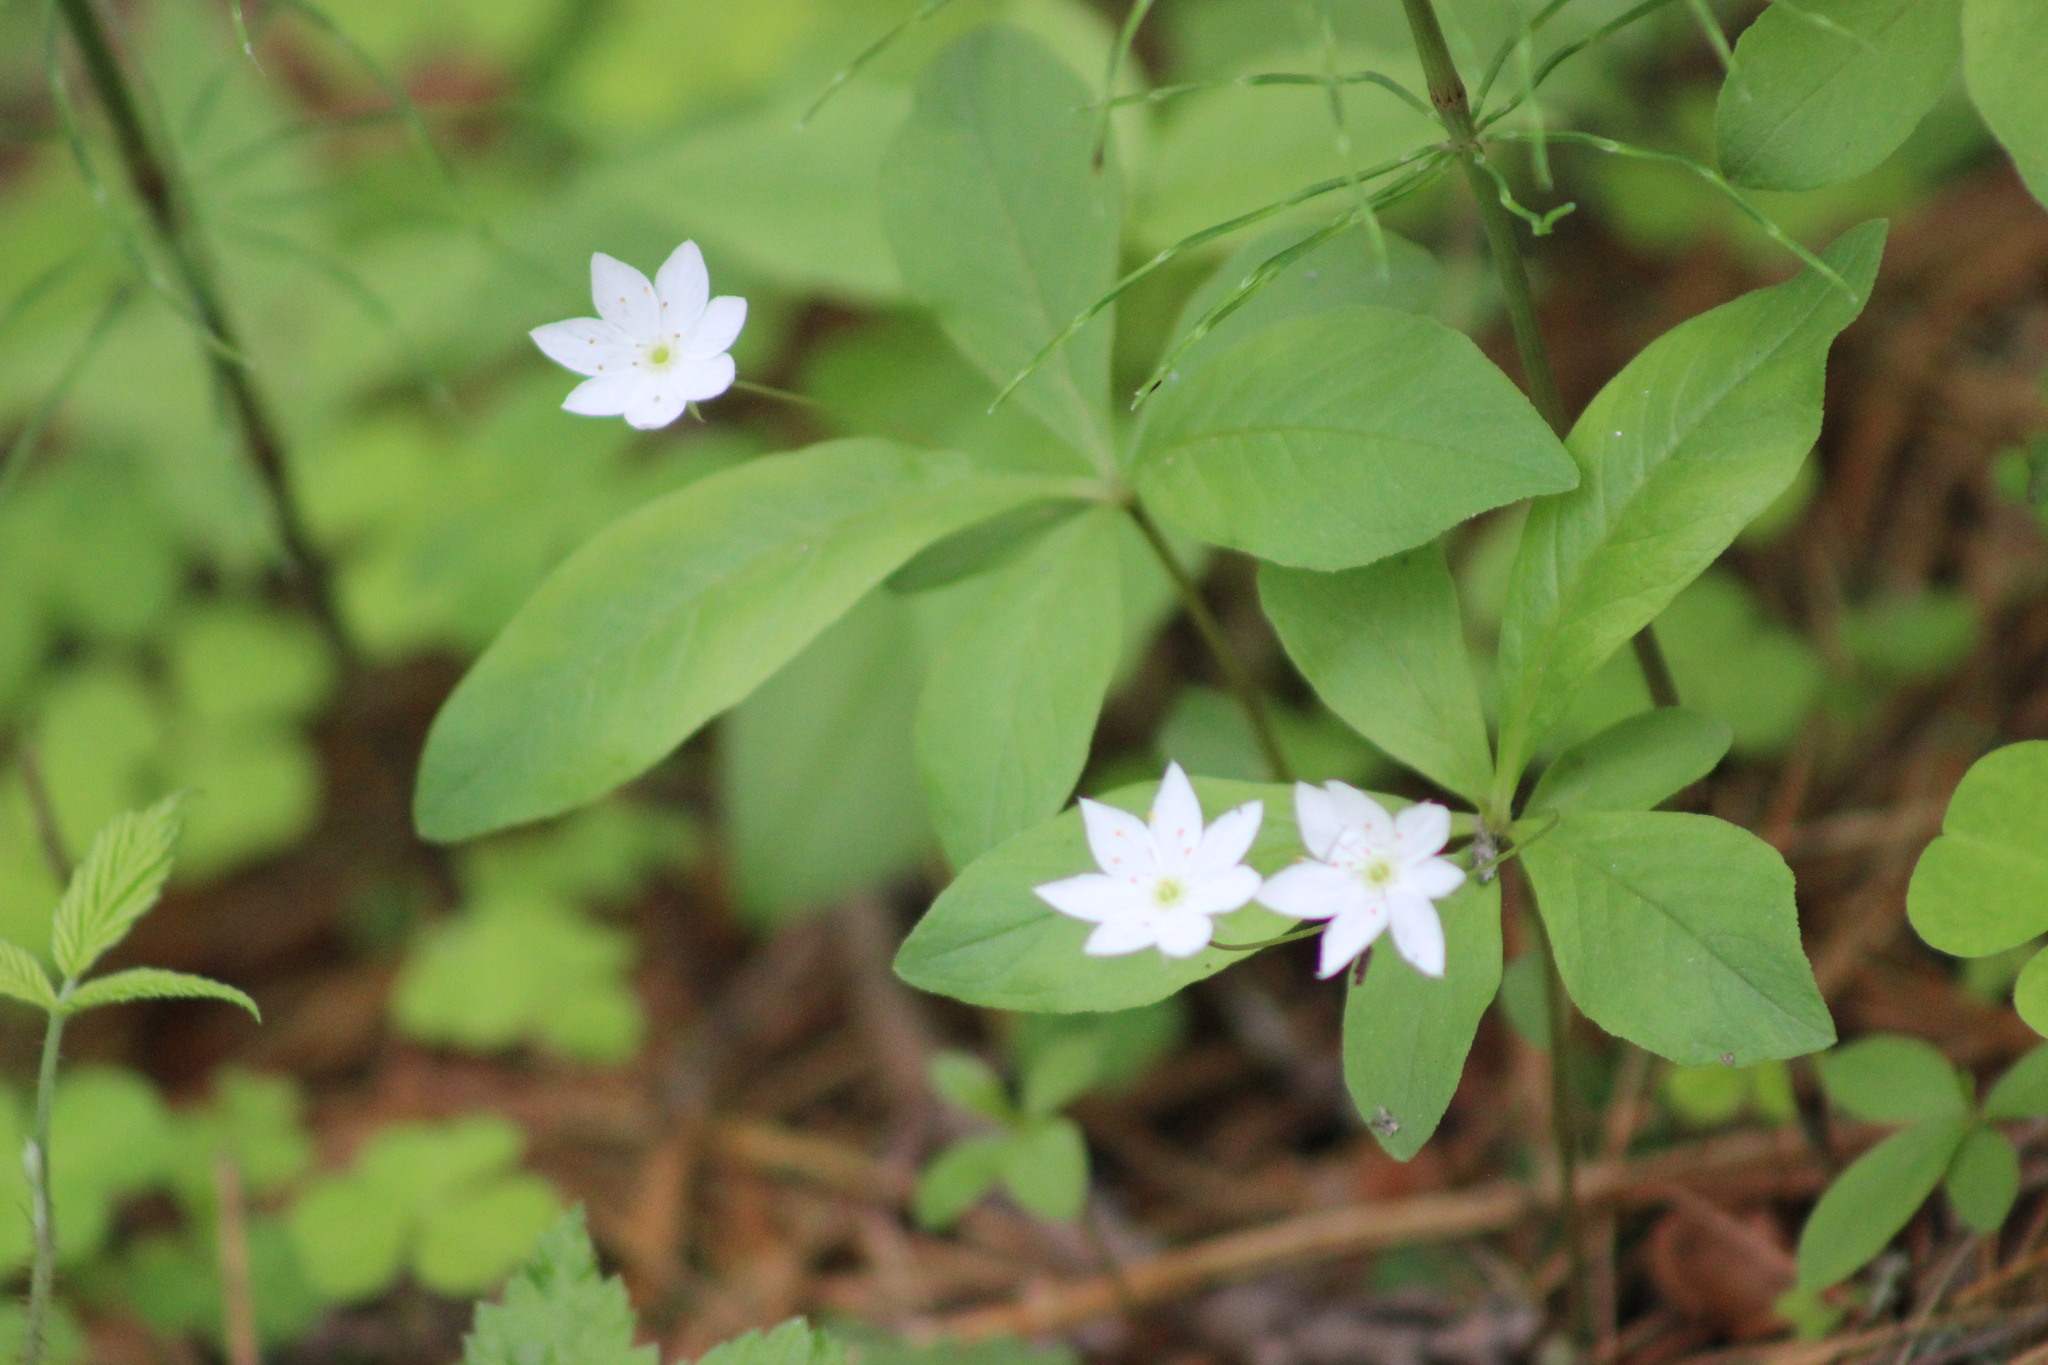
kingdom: Plantae
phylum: Tracheophyta
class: Magnoliopsida
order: Ericales
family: Primulaceae
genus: Lysimachia
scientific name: Lysimachia europaea
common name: Arctic starflower
